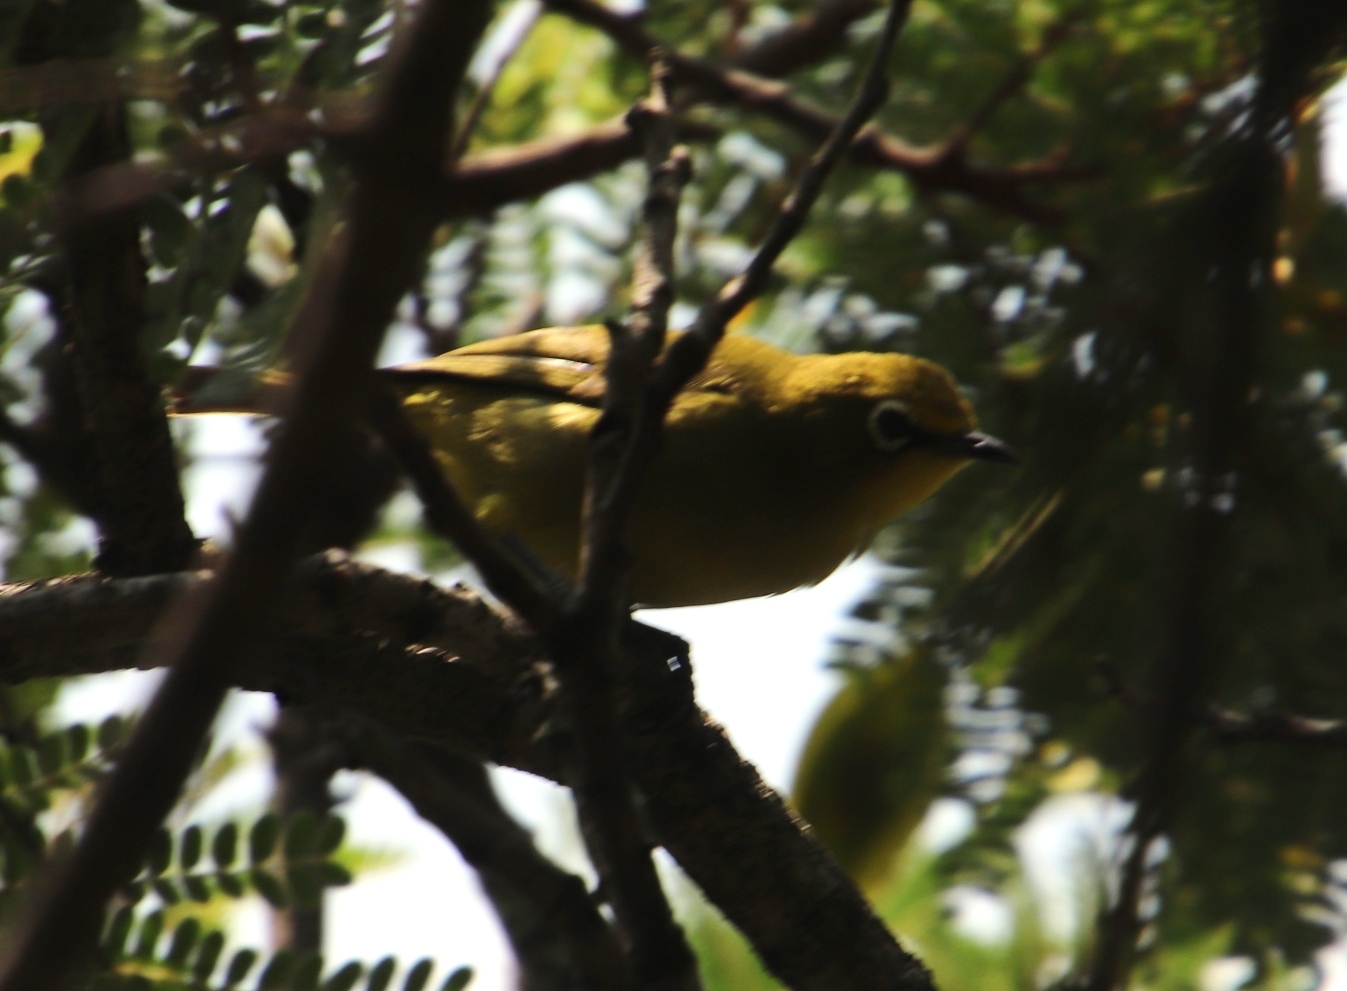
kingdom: Animalia
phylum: Chordata
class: Aves
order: Passeriformes
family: Zosteropidae
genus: Zosterops
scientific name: Zosterops virens
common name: Cape white-eye
